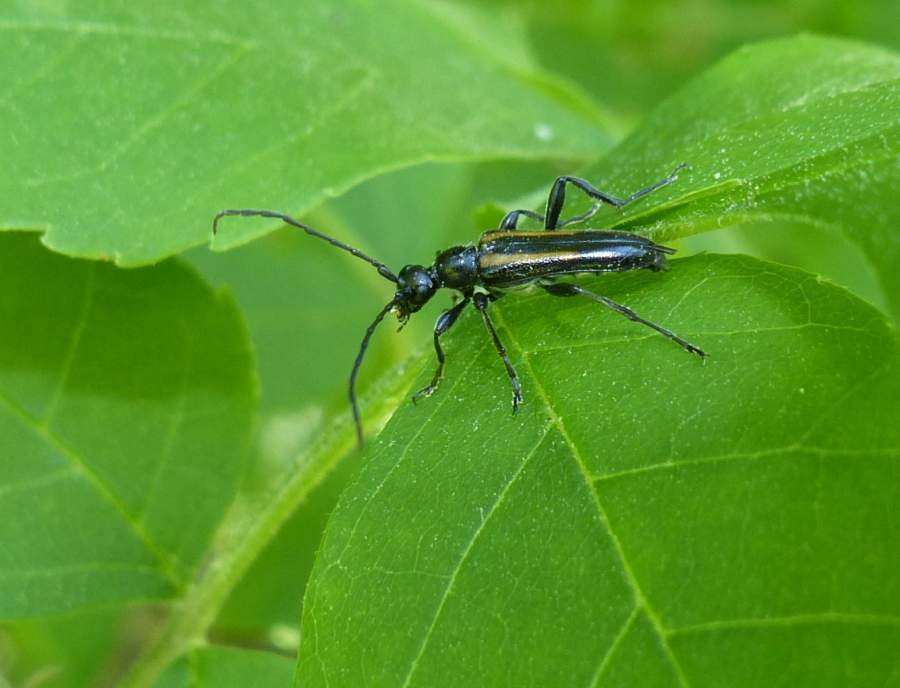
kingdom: Animalia
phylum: Arthropoda
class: Insecta
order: Coleoptera
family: Cerambycidae
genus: Strangalepta
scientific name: Strangalepta abbreviata
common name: Strangalepta flower longhorn beetle
